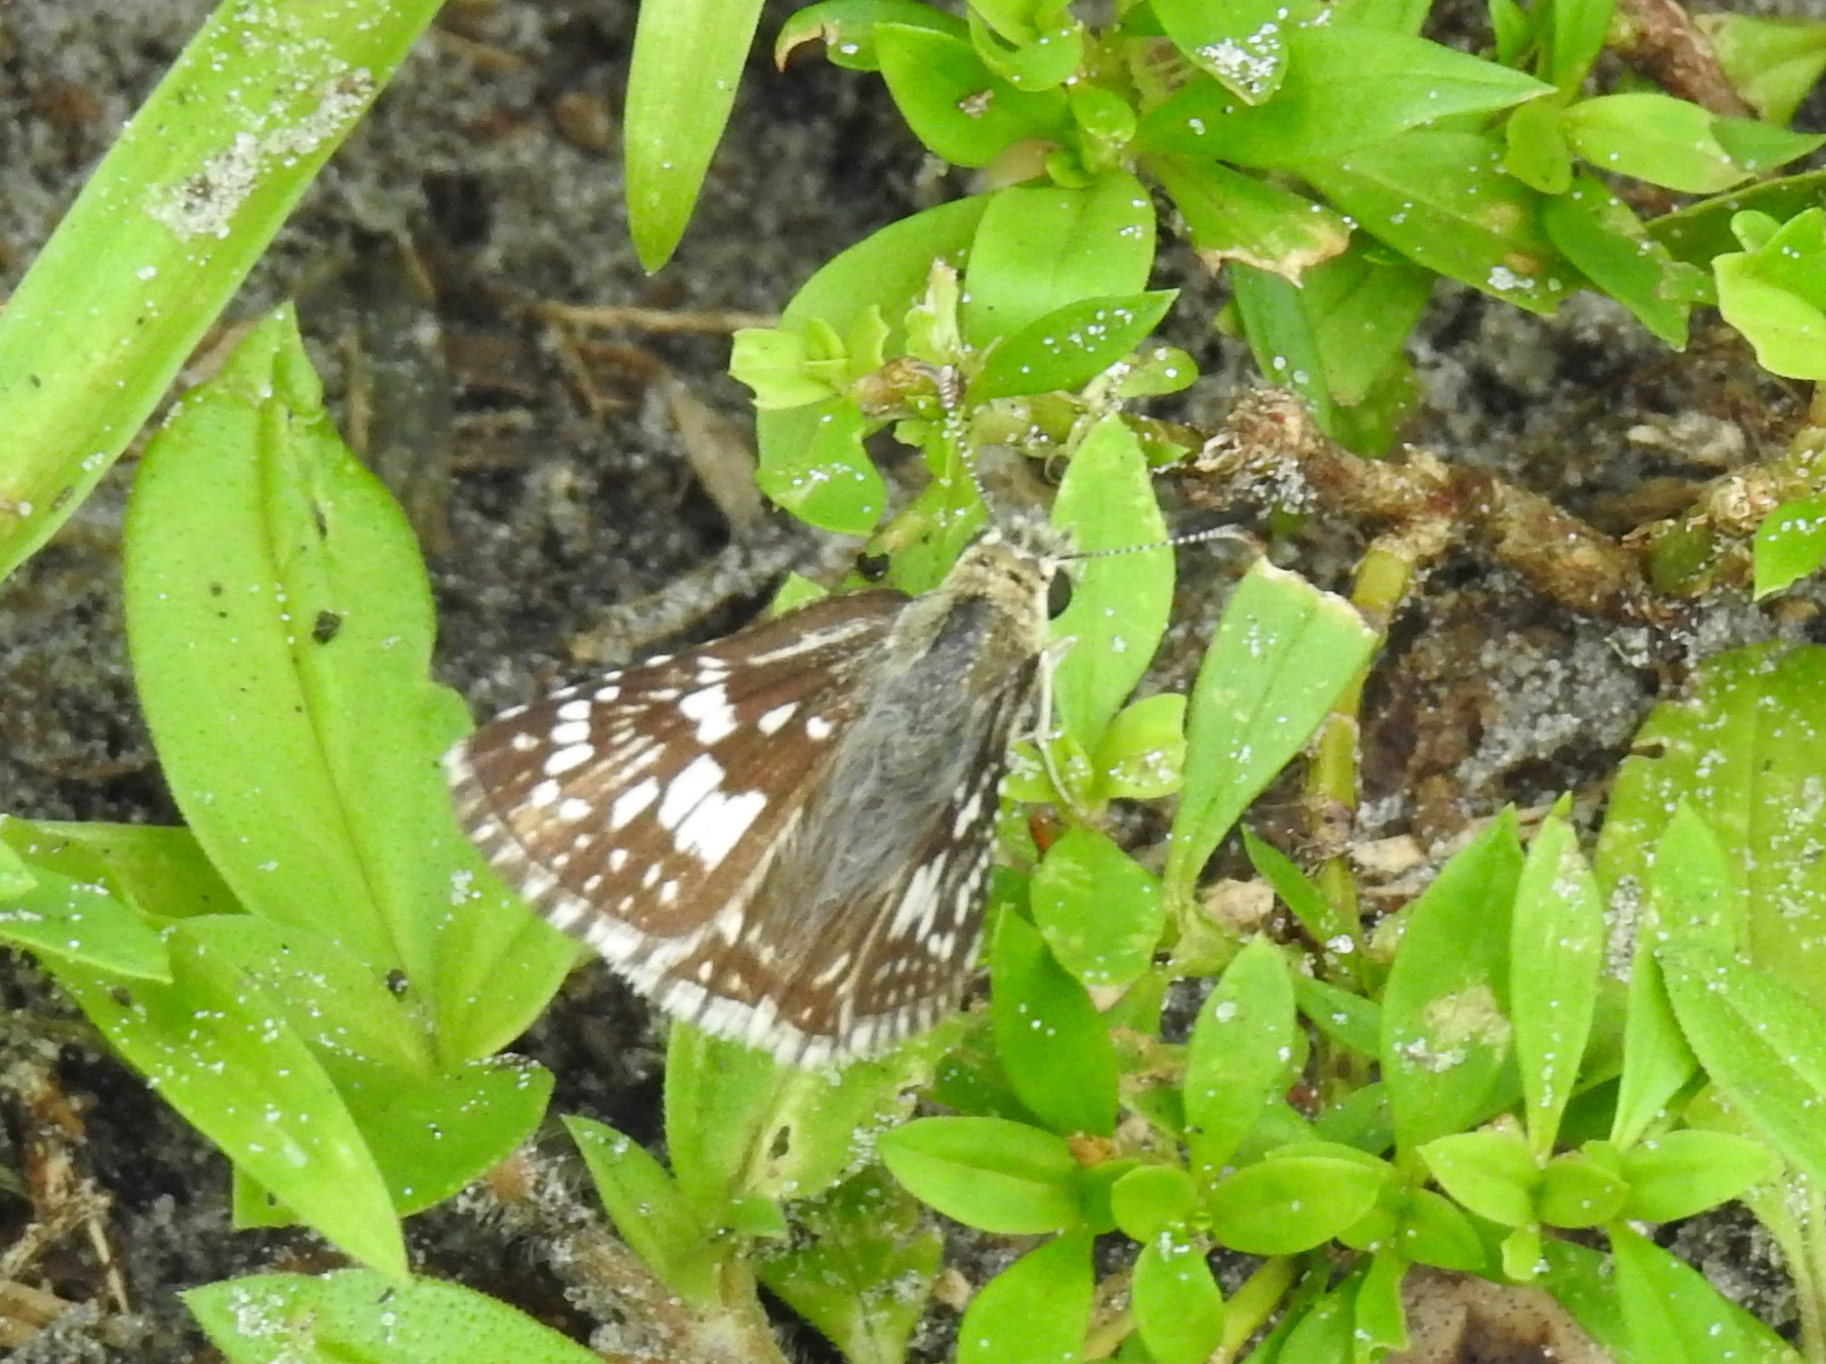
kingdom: Animalia
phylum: Arthropoda
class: Insecta
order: Lepidoptera
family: Hesperiidae
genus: Burnsius
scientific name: Burnsius albezens
